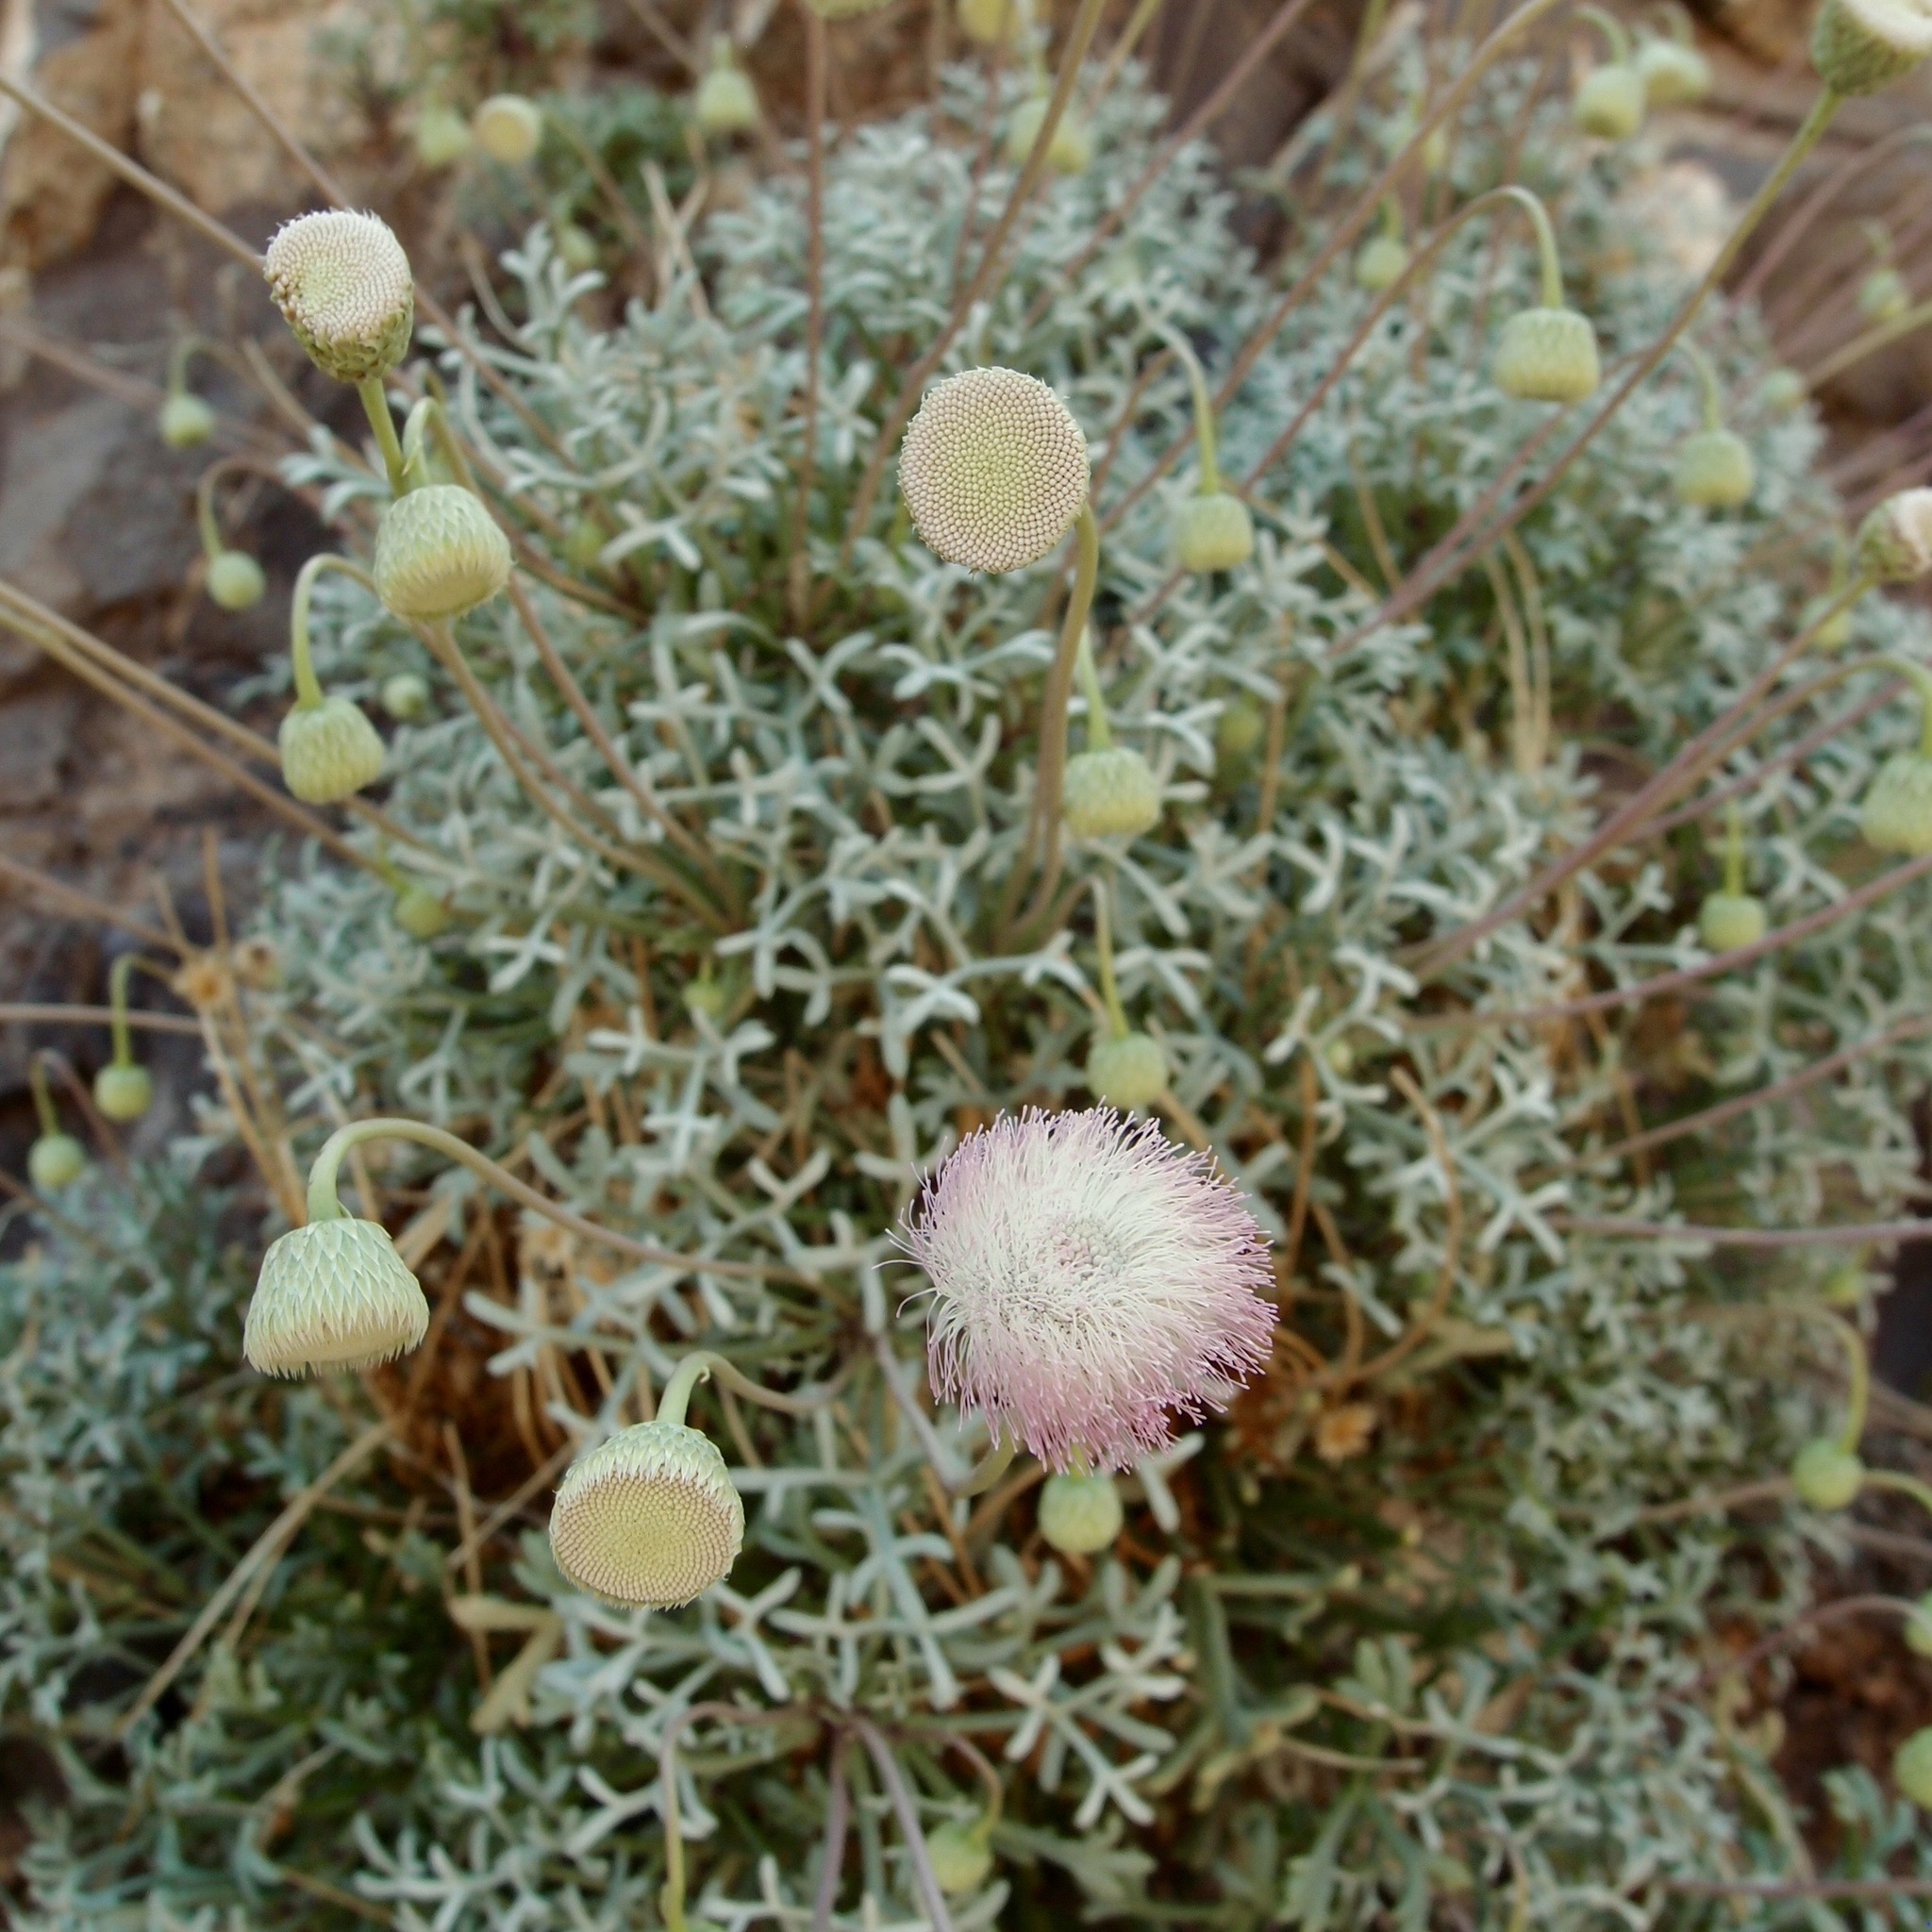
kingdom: Plantae
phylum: Tracheophyta
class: Magnoliopsida
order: Asterales
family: Asteraceae
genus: Hofmeisteria
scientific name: Hofmeisteria crassifolia
